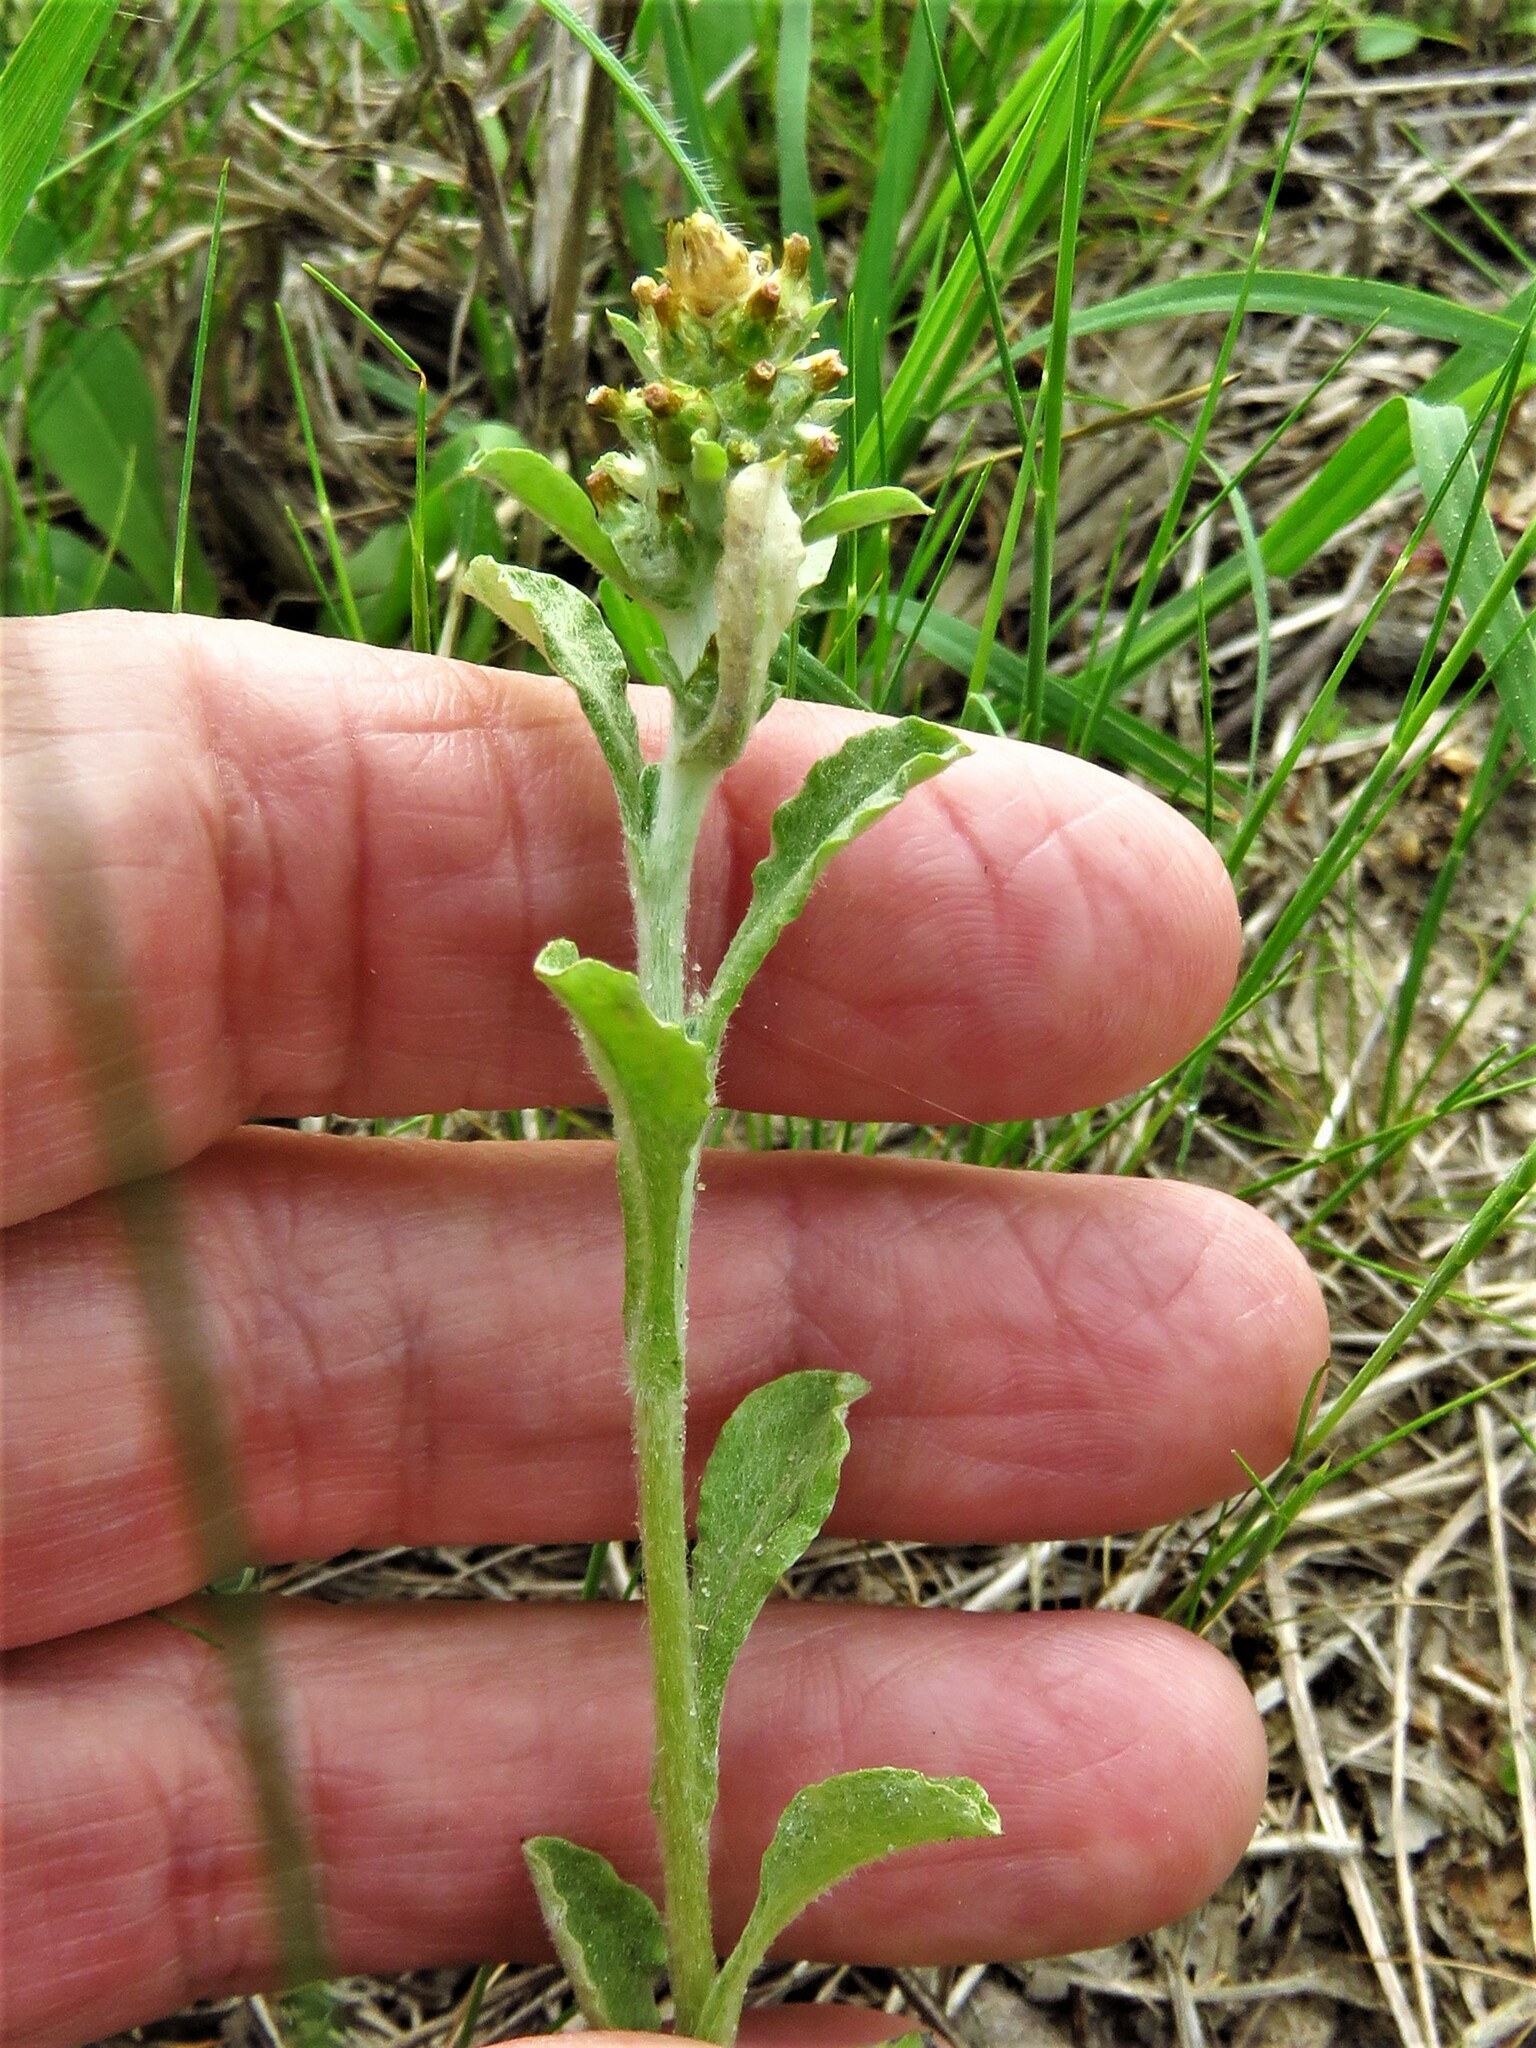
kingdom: Plantae
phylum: Tracheophyta
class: Magnoliopsida
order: Asterales
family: Asteraceae
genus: Gamochaeta
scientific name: Gamochaeta pensylvanica
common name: Pennsylvania everlasting
